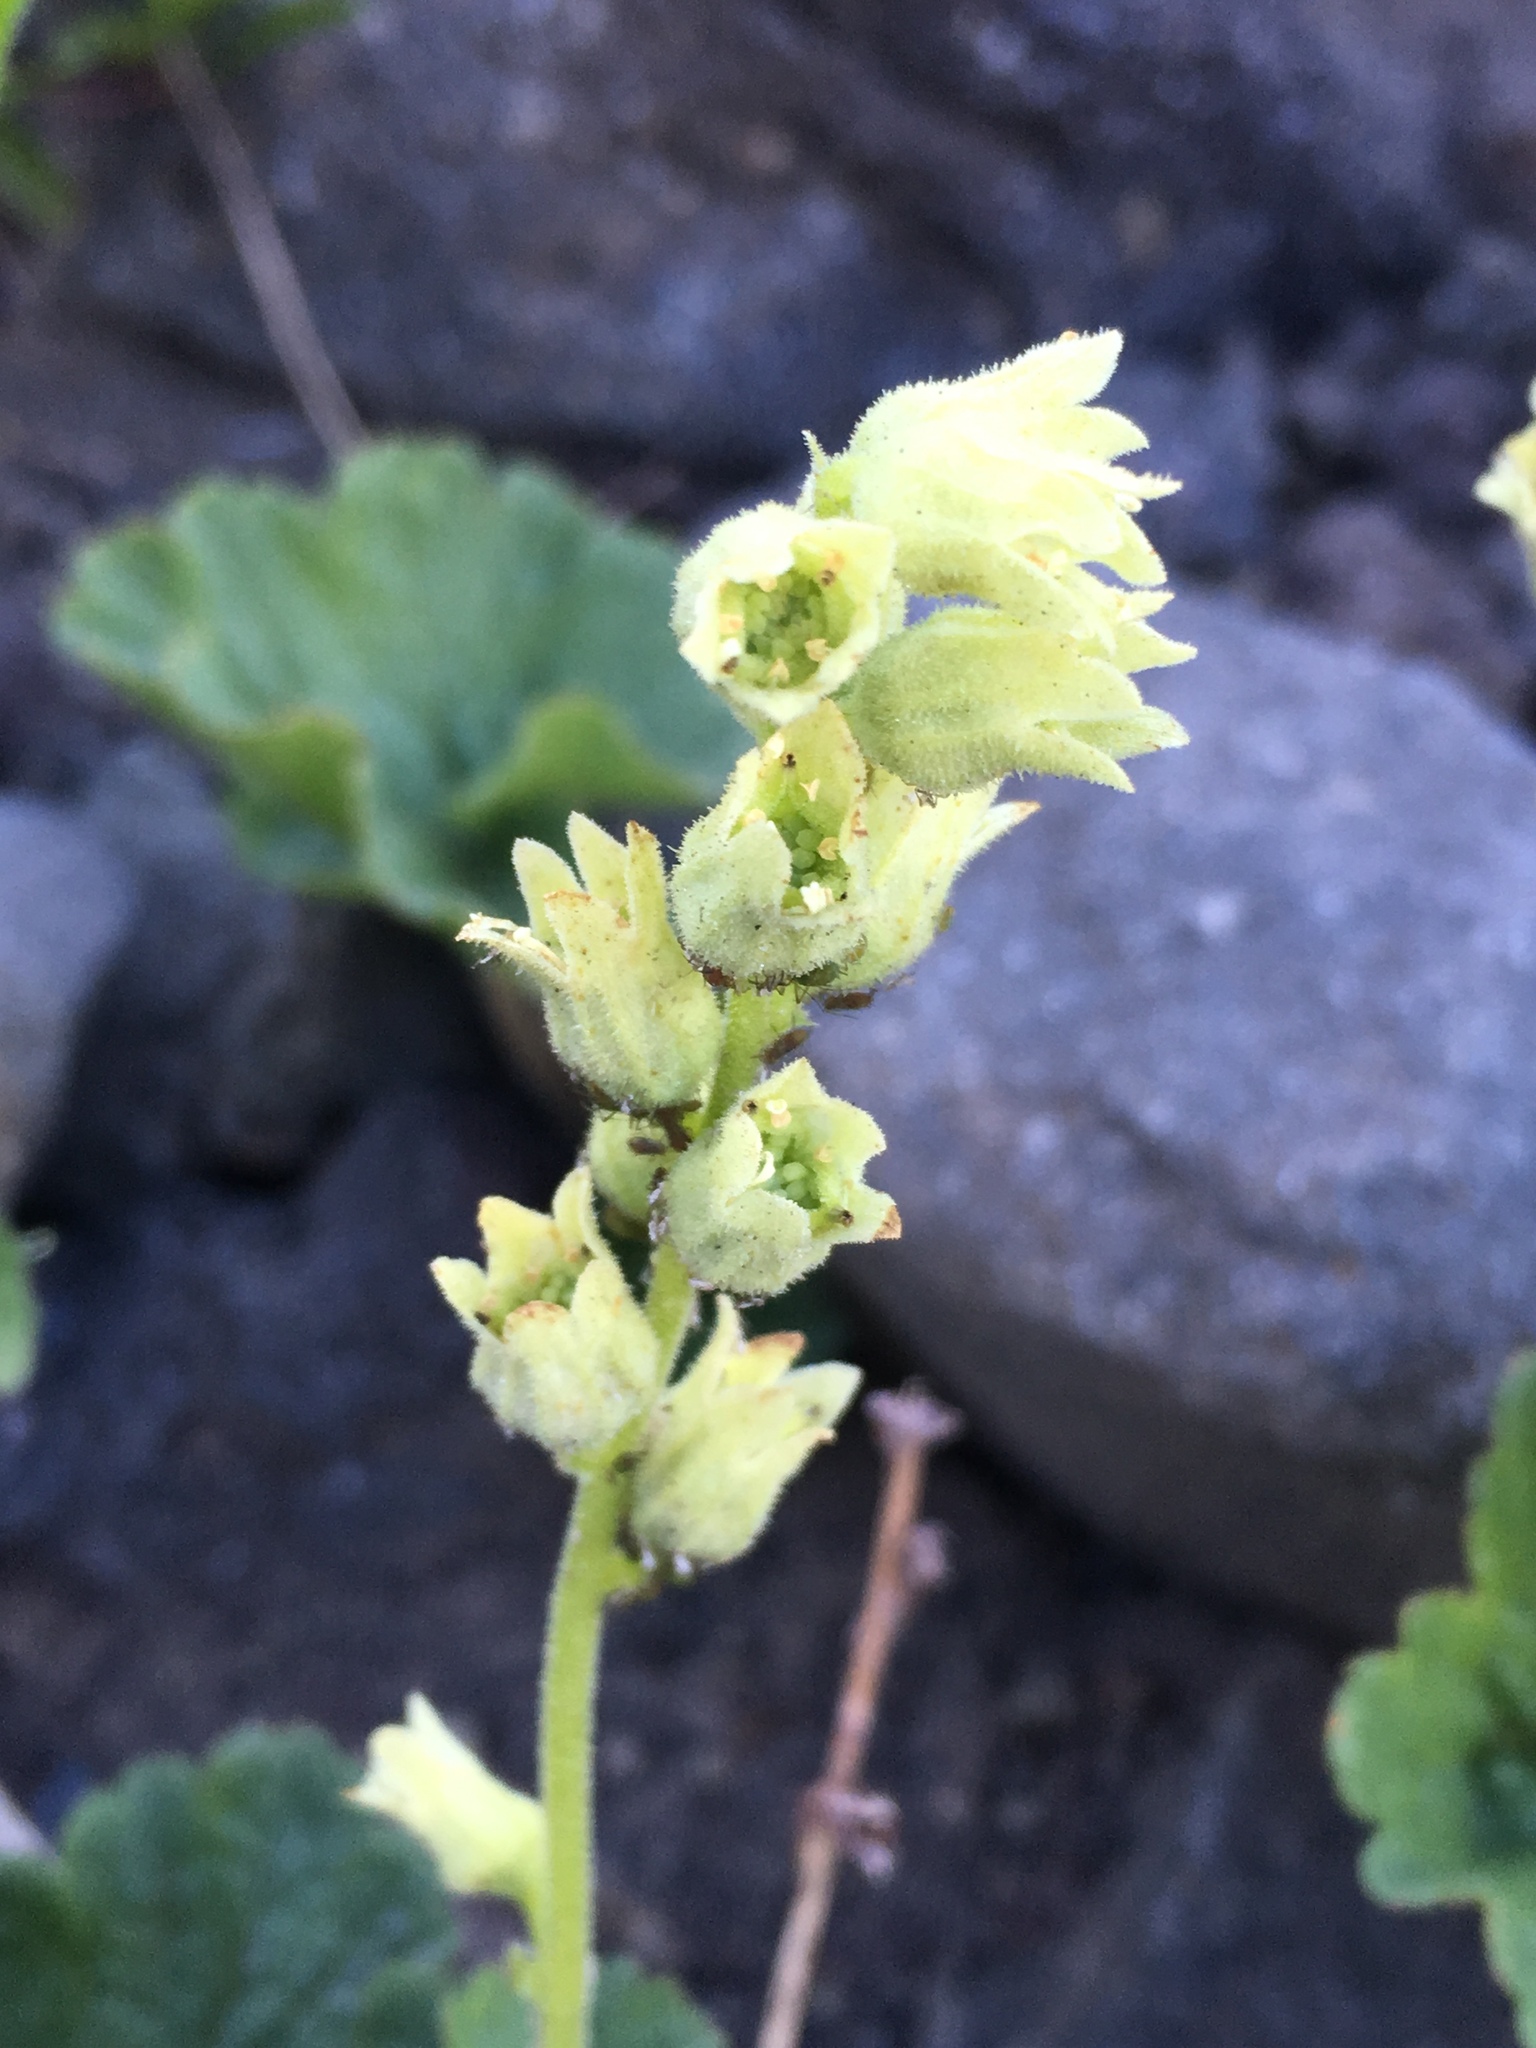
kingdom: Plantae
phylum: Tracheophyta
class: Magnoliopsida
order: Saxifragales
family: Saxifragaceae
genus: Elmera
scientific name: Elmera racemosa
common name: Elmera
